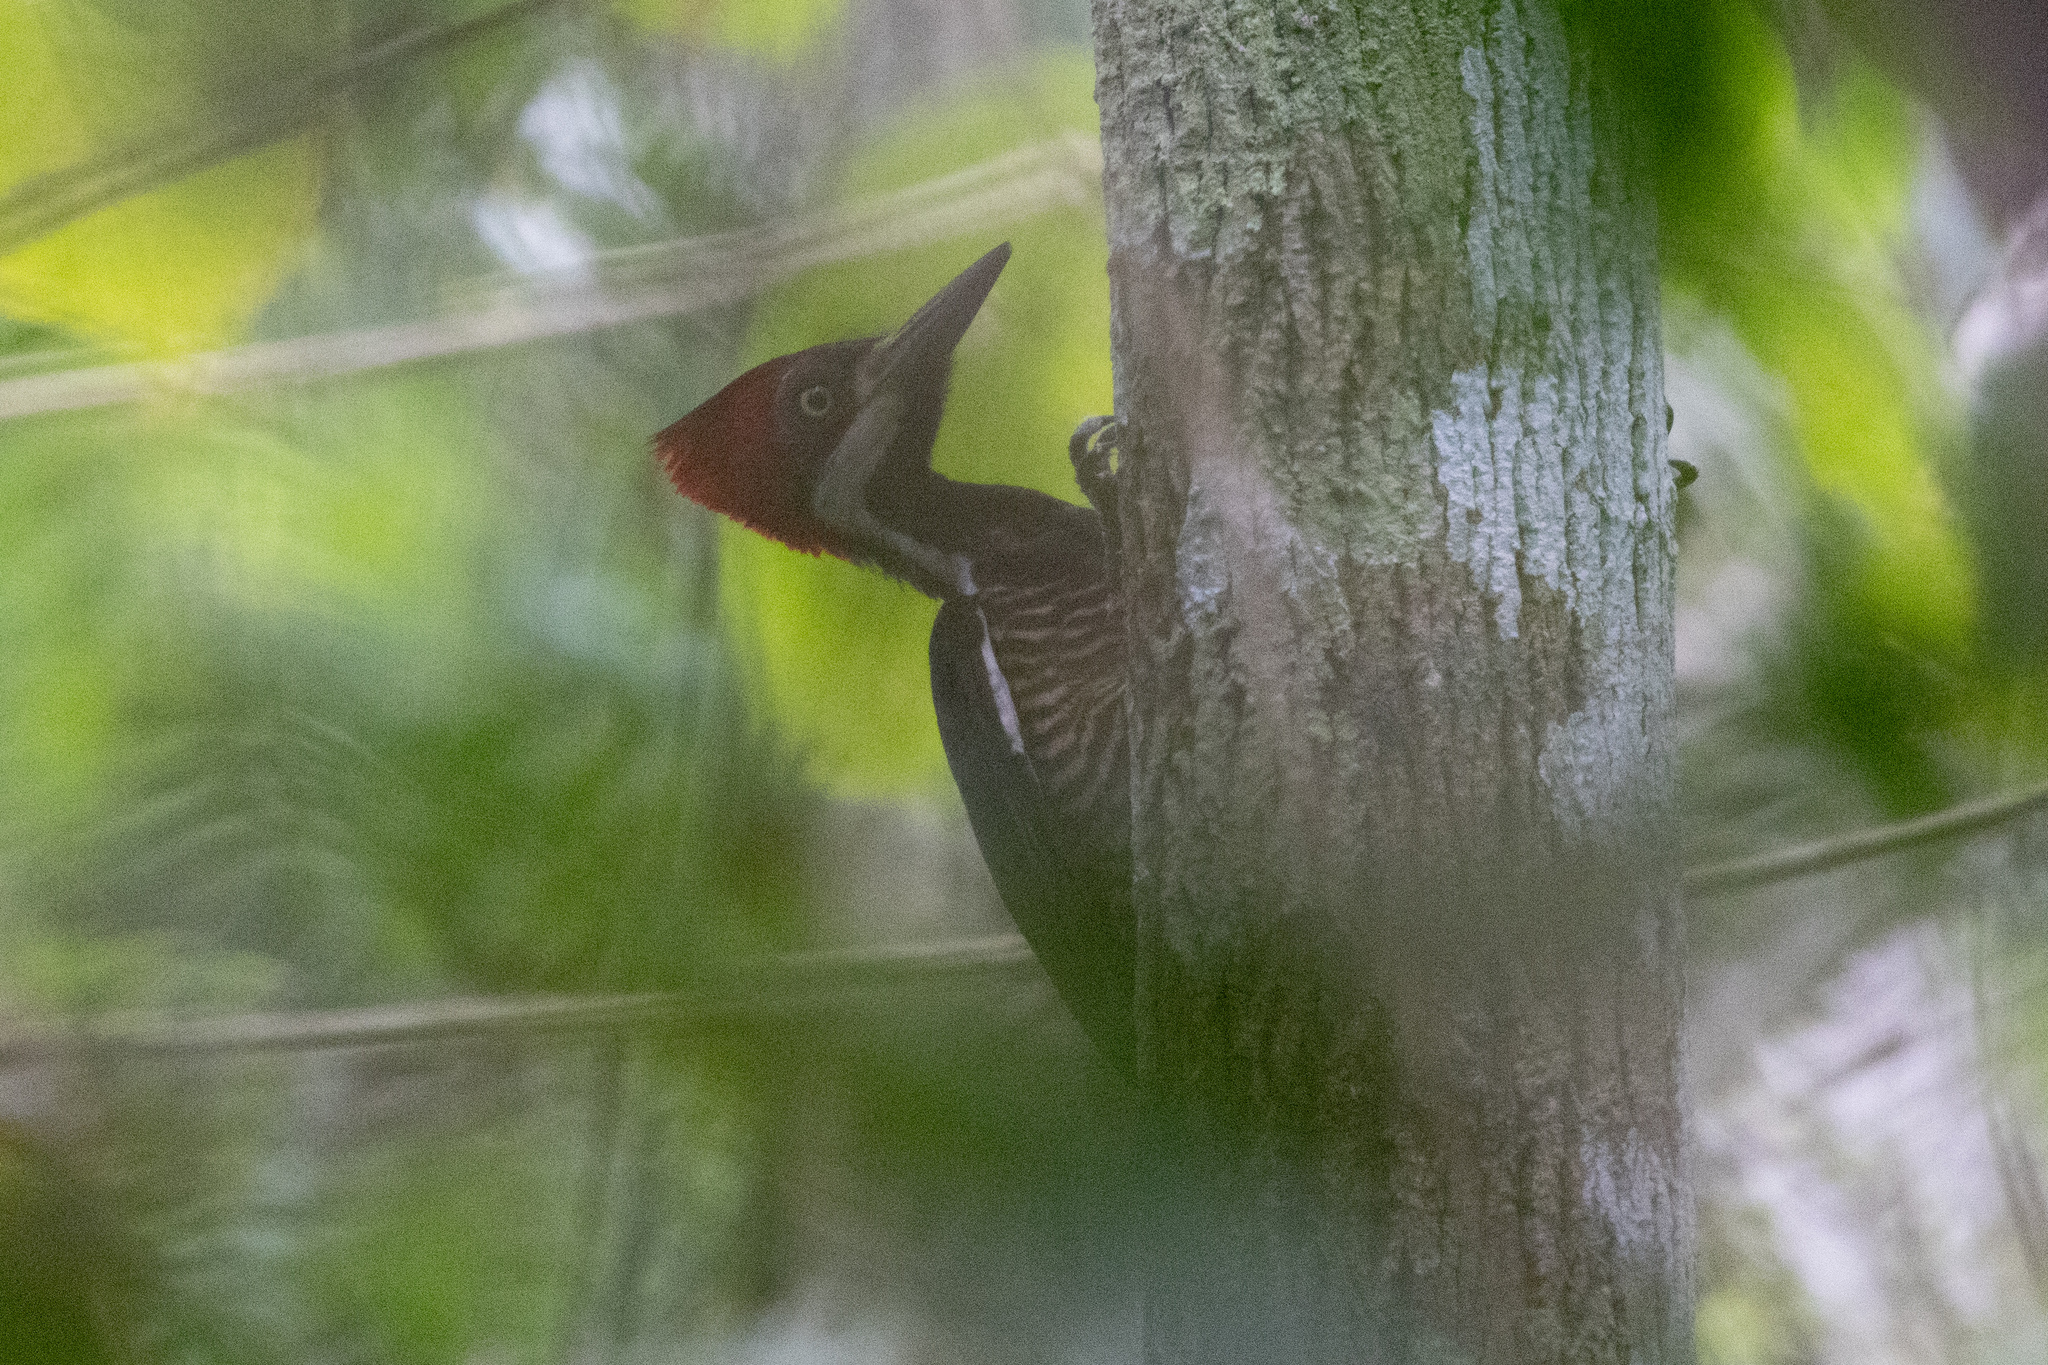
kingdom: Animalia
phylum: Chordata
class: Aves
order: Piciformes
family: Picidae
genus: Campephilus
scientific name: Campephilus melanoleucos
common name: Crimson-crested woodpecker
